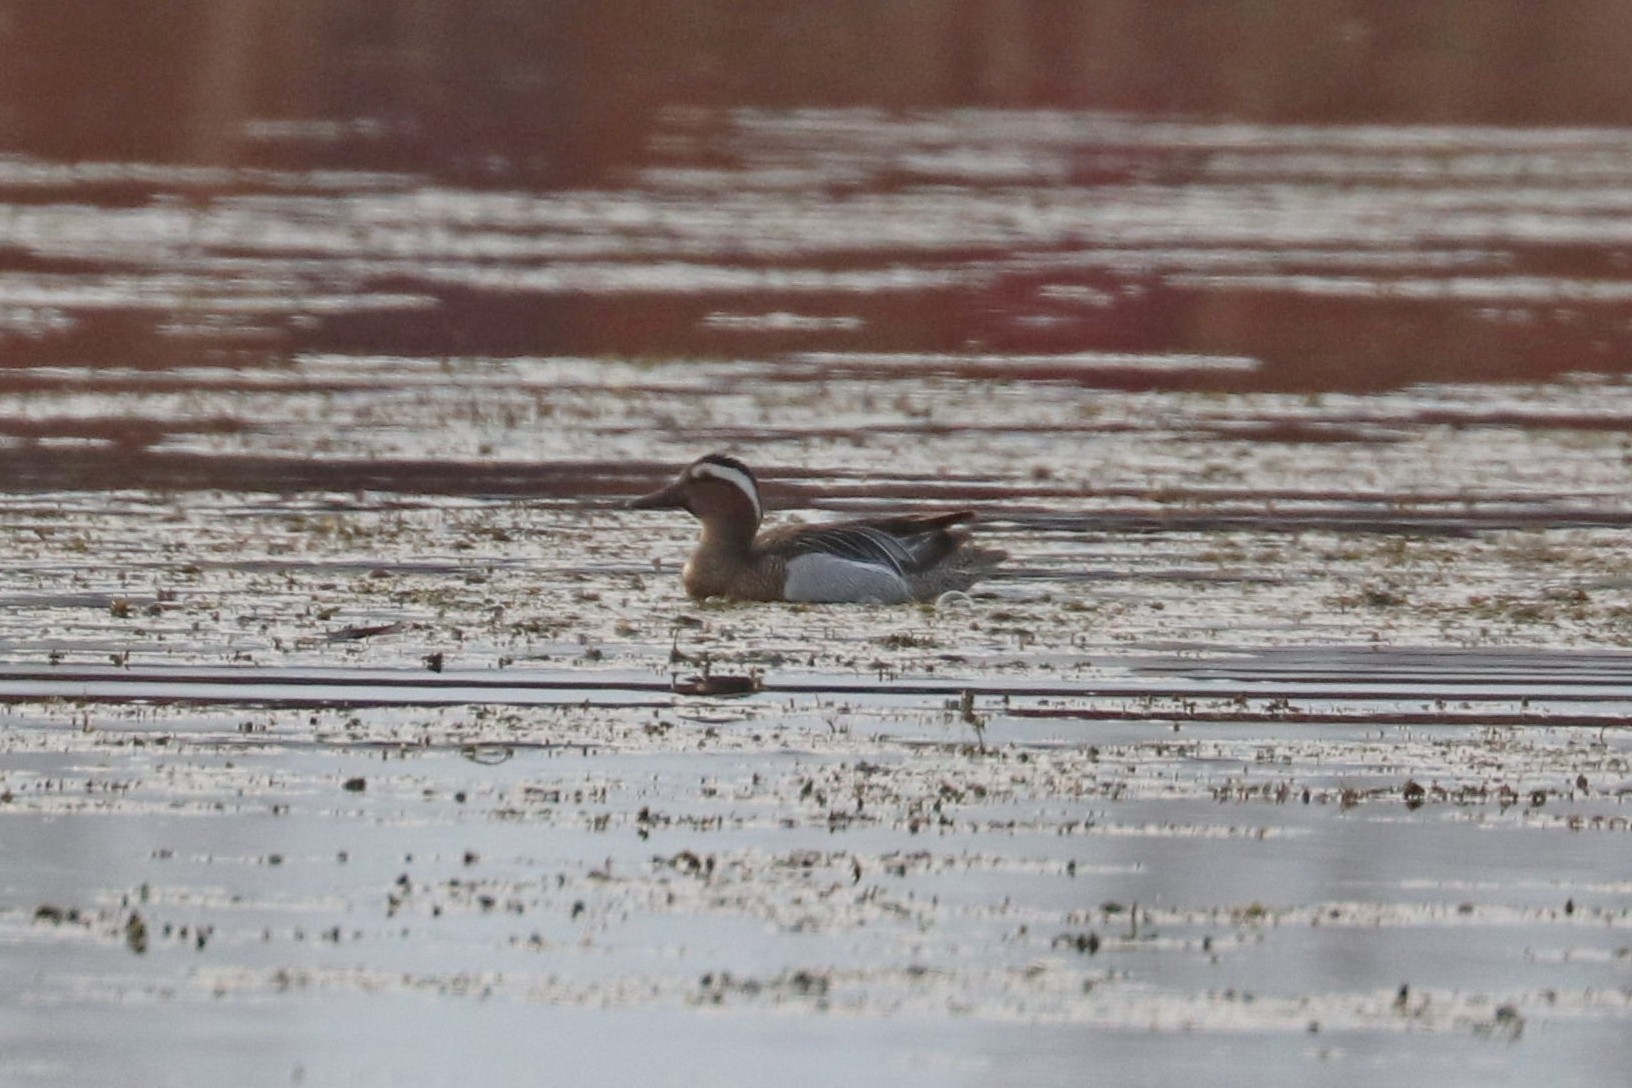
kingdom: Animalia
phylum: Chordata
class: Aves
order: Anseriformes
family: Anatidae
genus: Spatula
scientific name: Spatula querquedula
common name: Garganey
